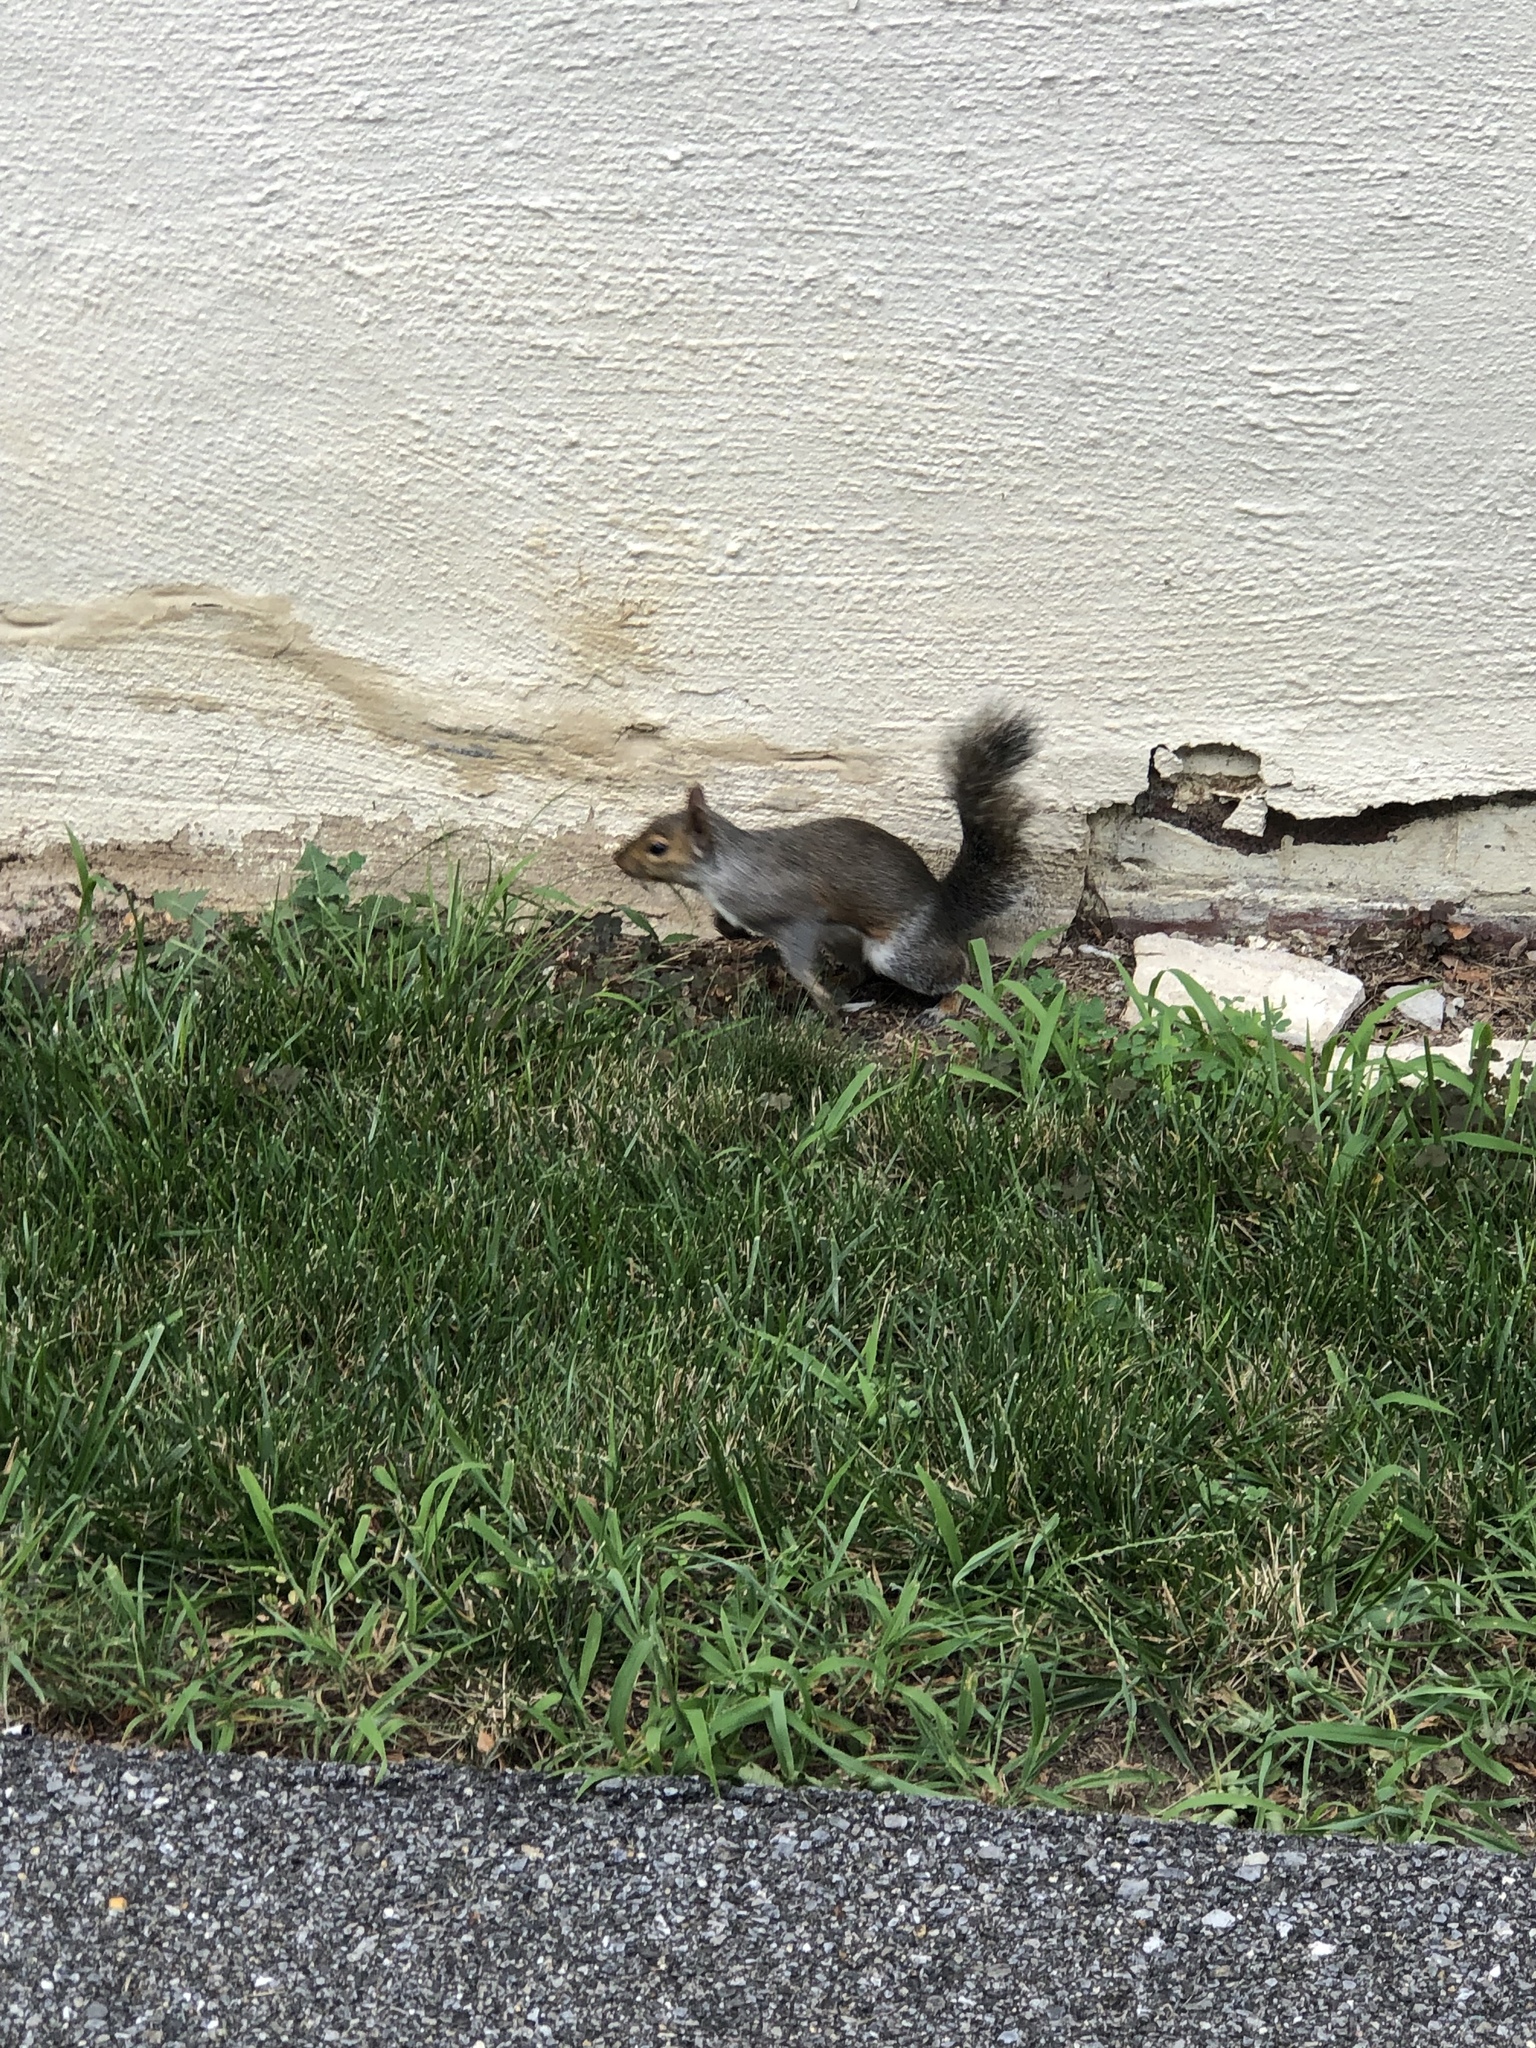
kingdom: Animalia
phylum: Chordata
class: Mammalia
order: Rodentia
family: Sciuridae
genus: Sciurus
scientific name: Sciurus carolinensis
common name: Eastern gray squirrel
